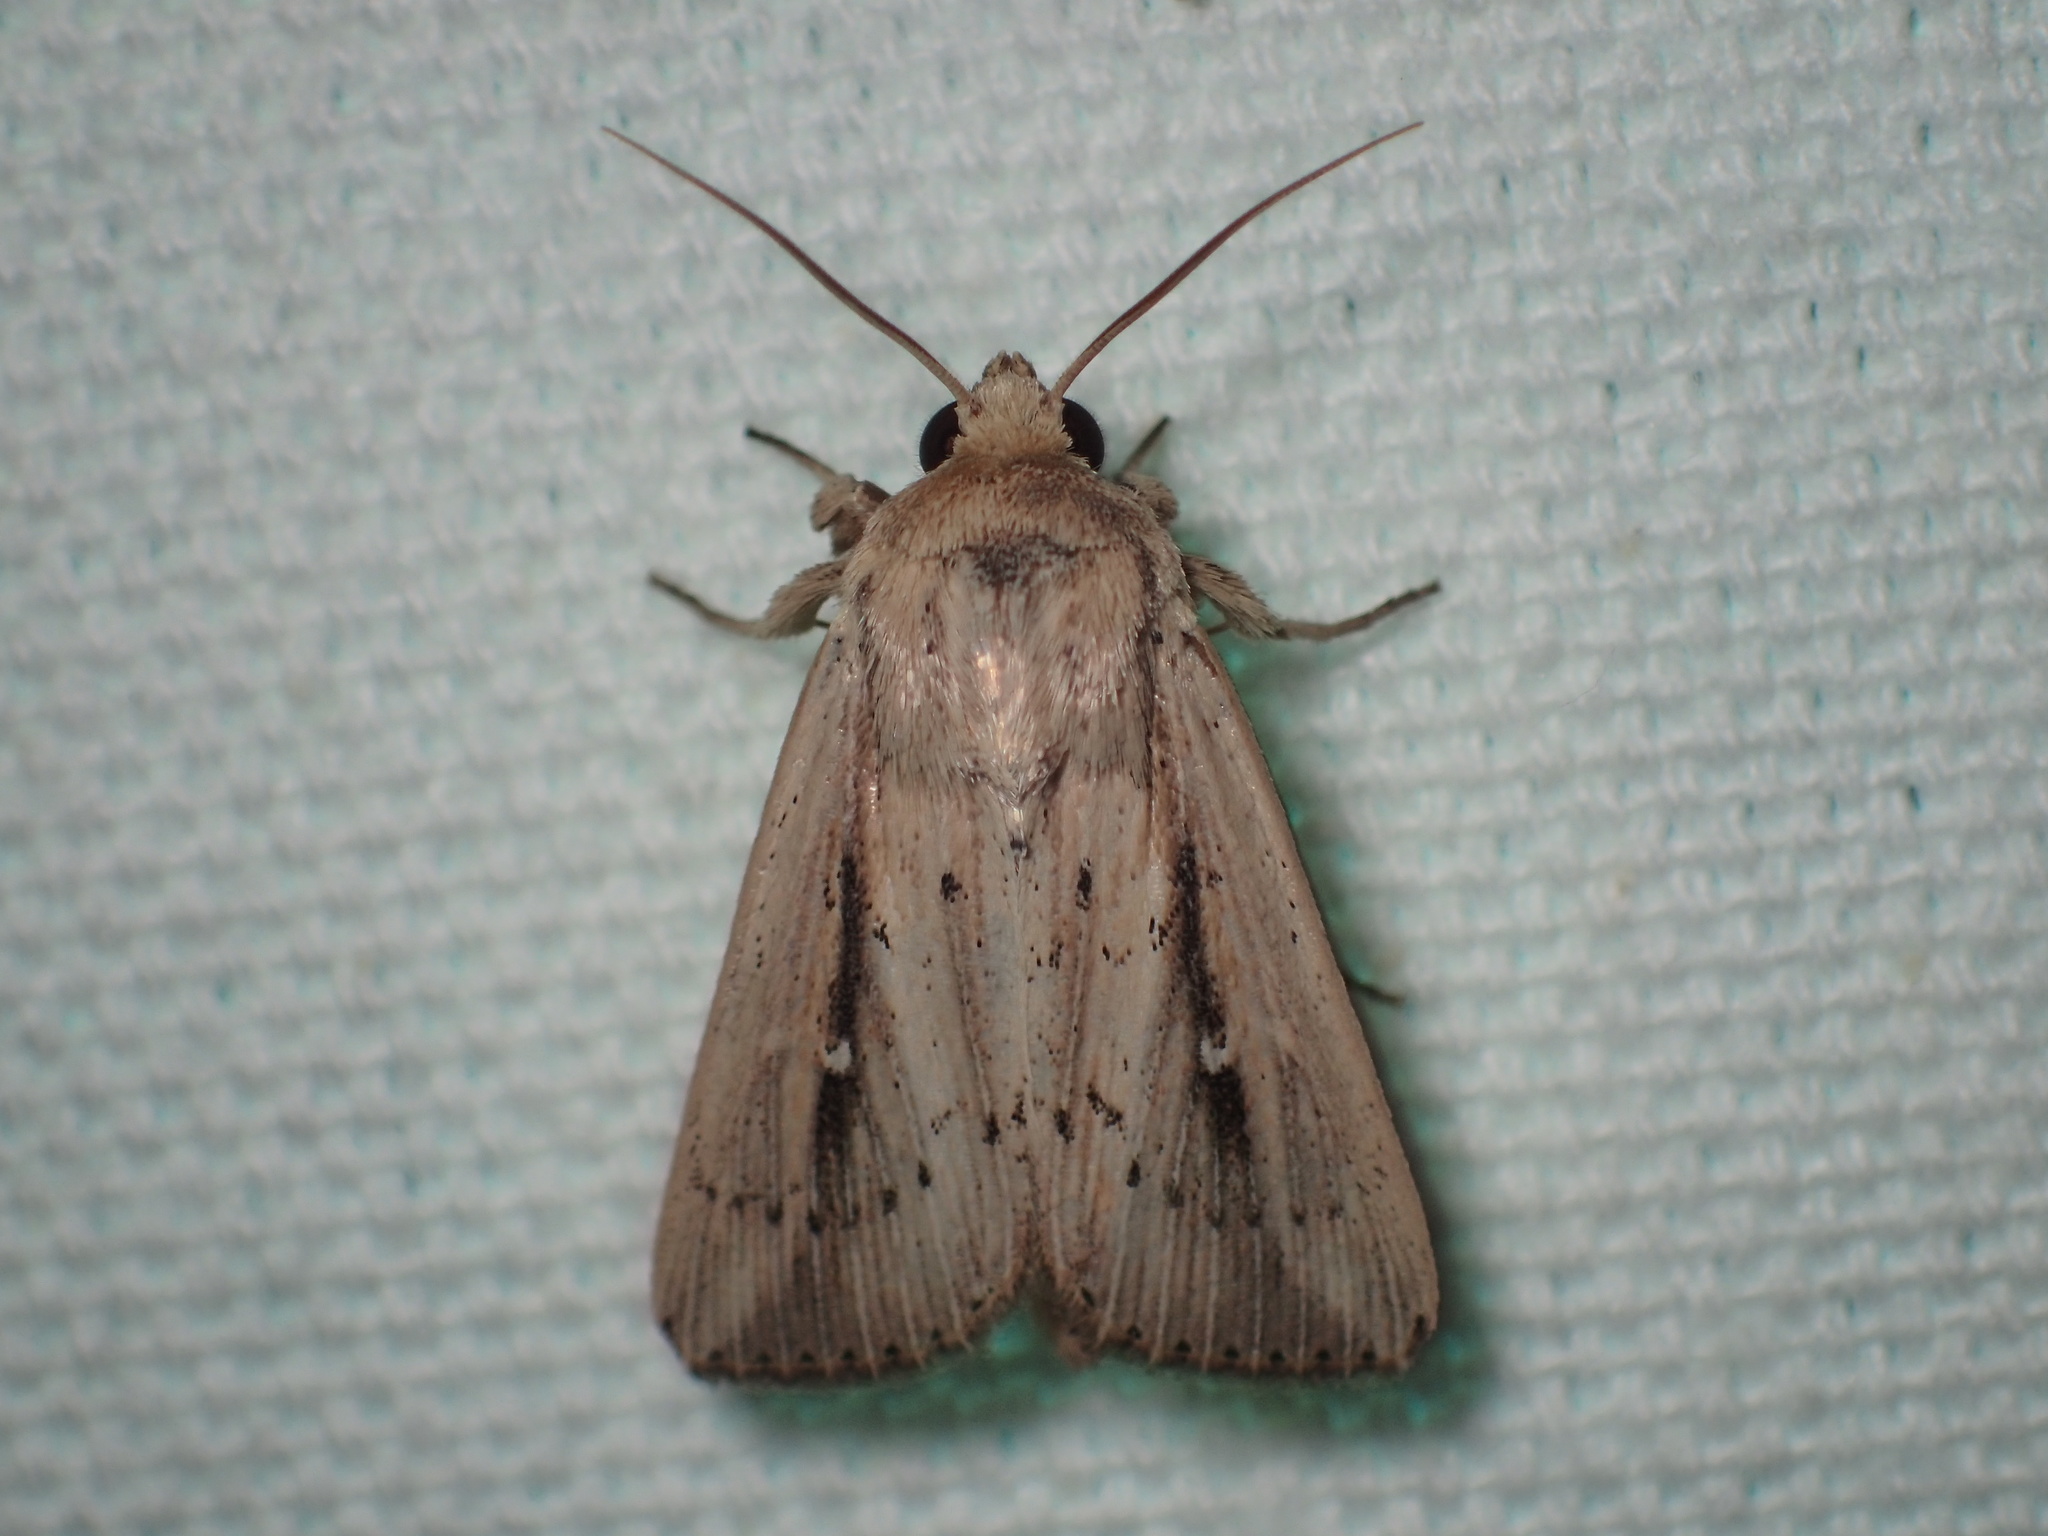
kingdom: Animalia
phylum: Arthropoda
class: Insecta
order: Lepidoptera
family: Noctuidae
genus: Leucania
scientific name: Leucania incognita
